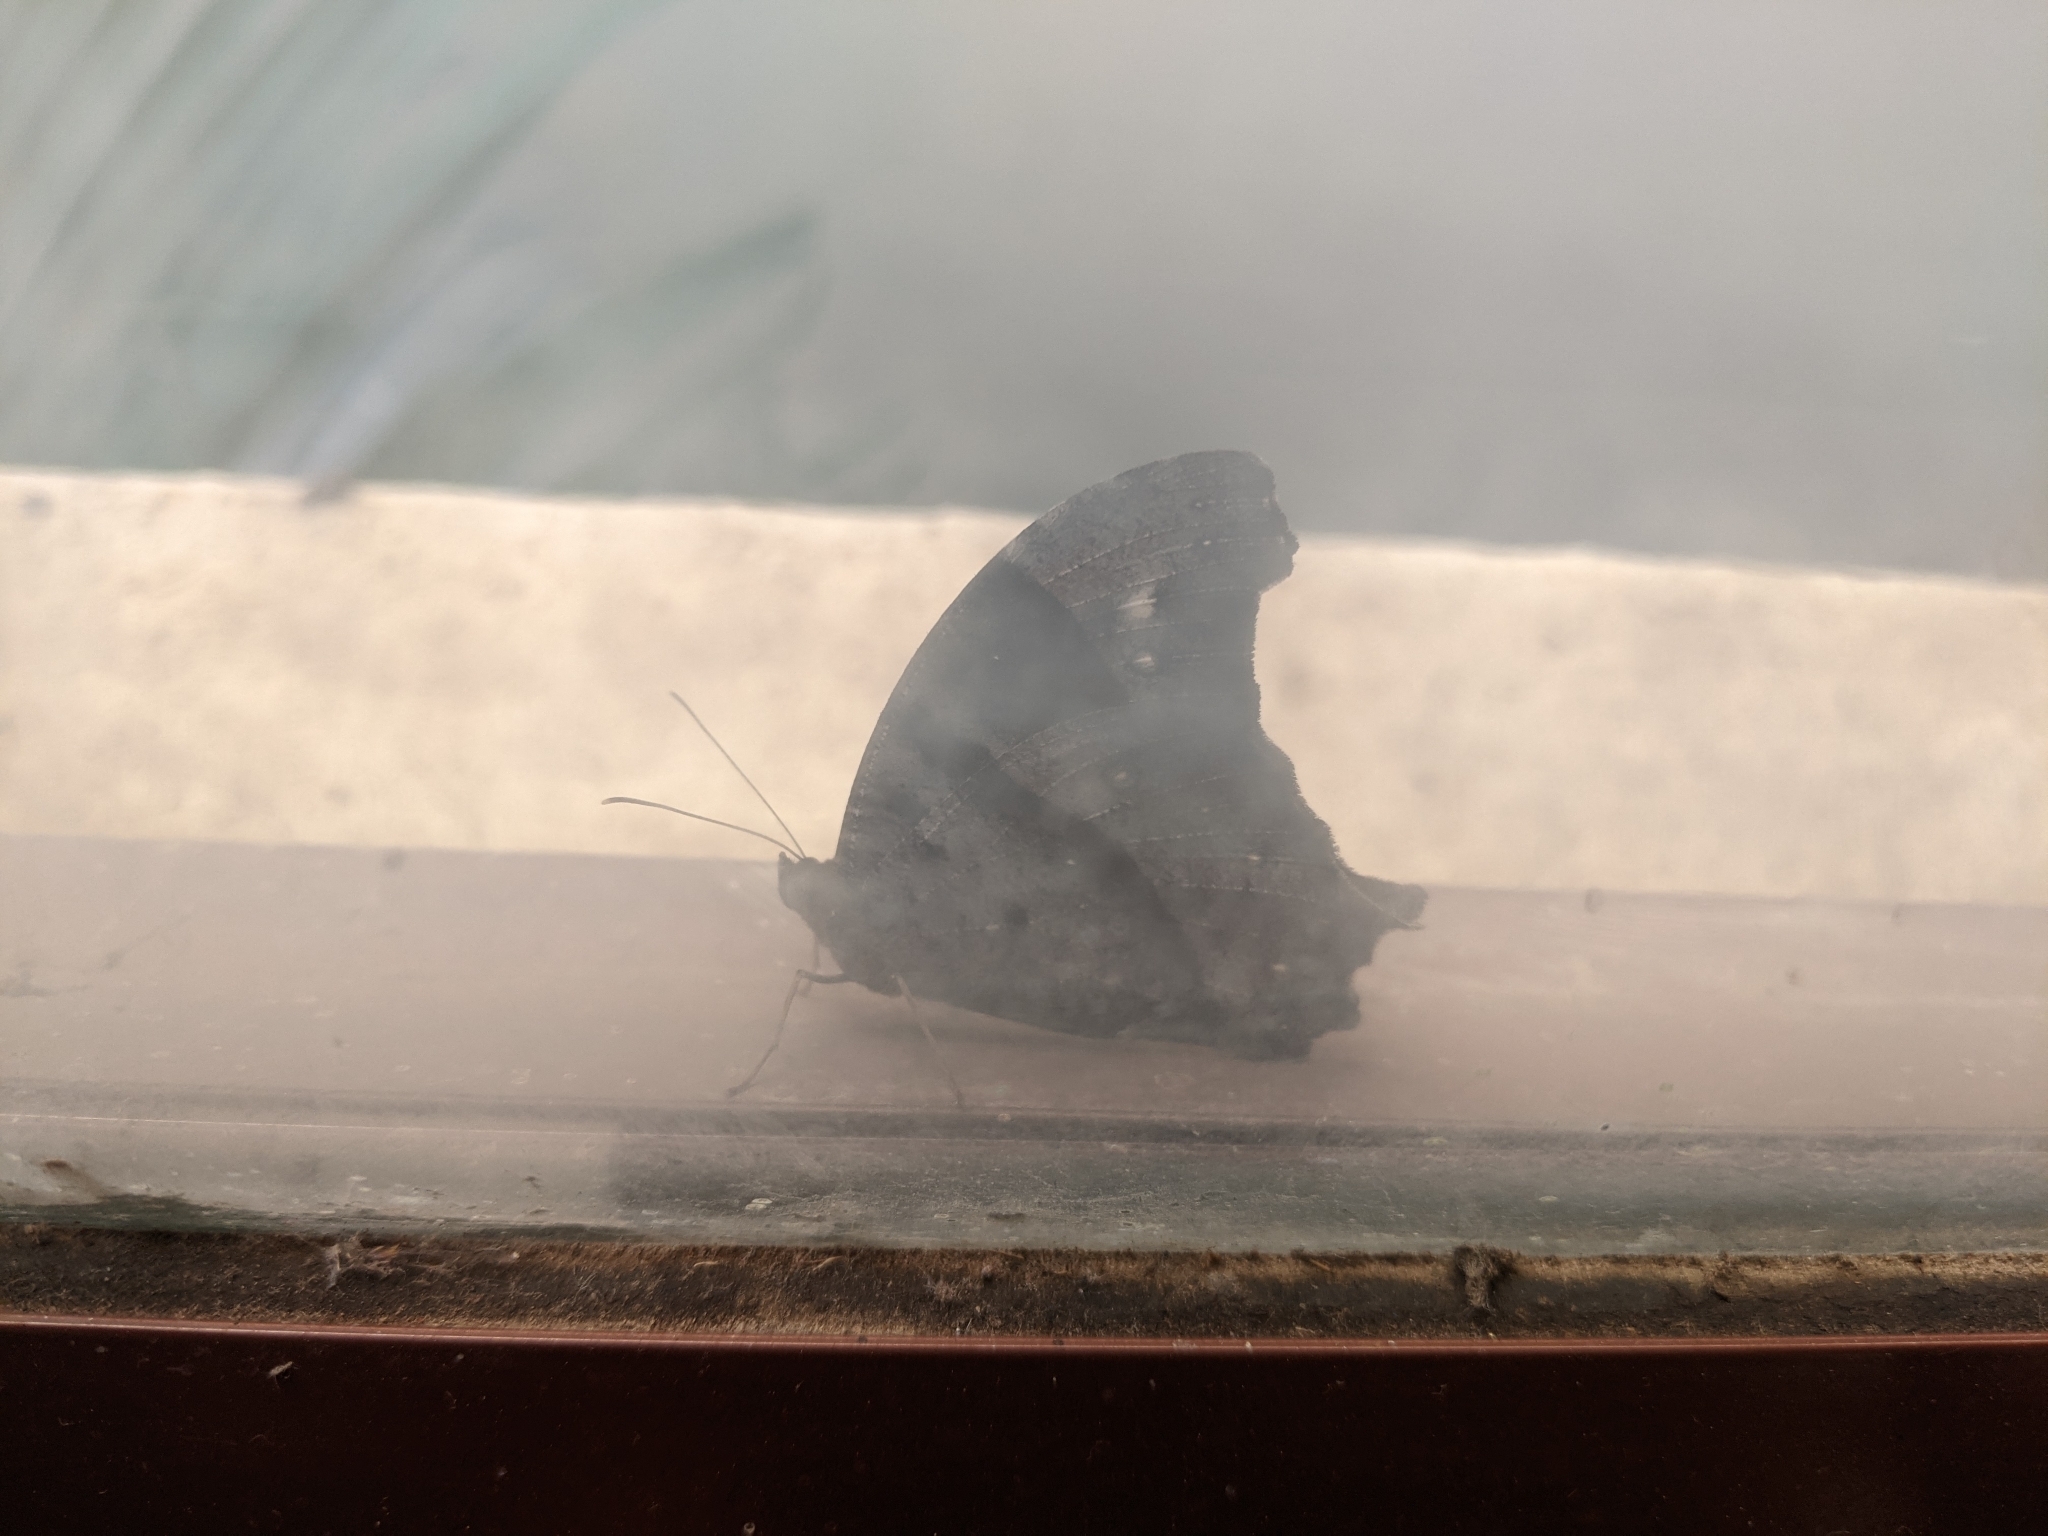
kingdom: Animalia
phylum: Arthropoda
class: Insecta
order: Lepidoptera
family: Nymphalidae
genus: Melanitis
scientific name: Melanitis leda
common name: Twilight brown
